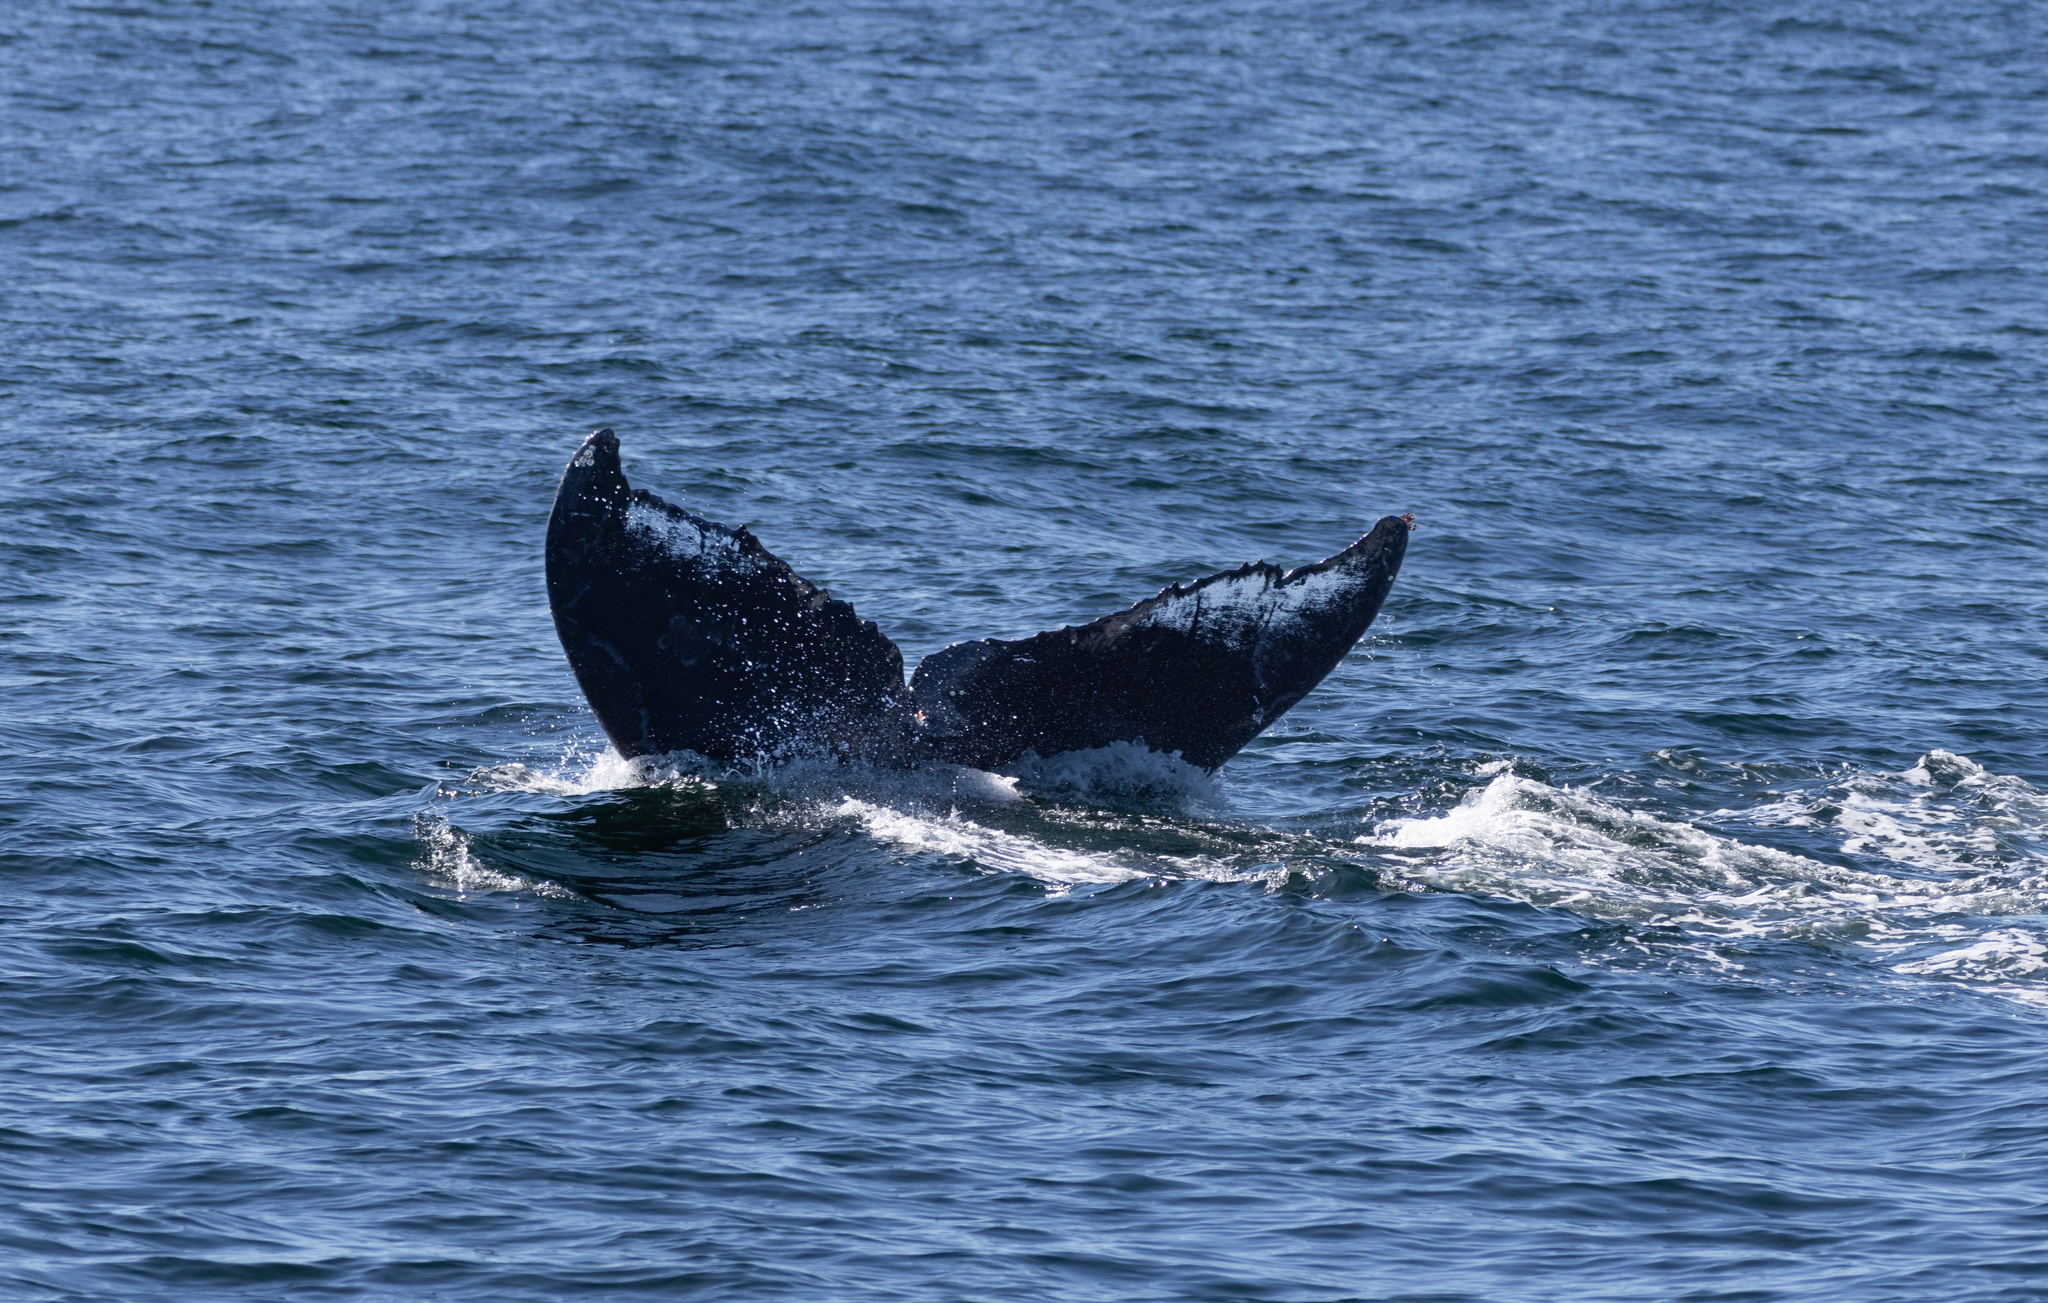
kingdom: Animalia
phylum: Chordata
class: Mammalia
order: Cetacea
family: Balaenopteridae
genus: Megaptera
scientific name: Megaptera novaeangliae
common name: Humpback whale
